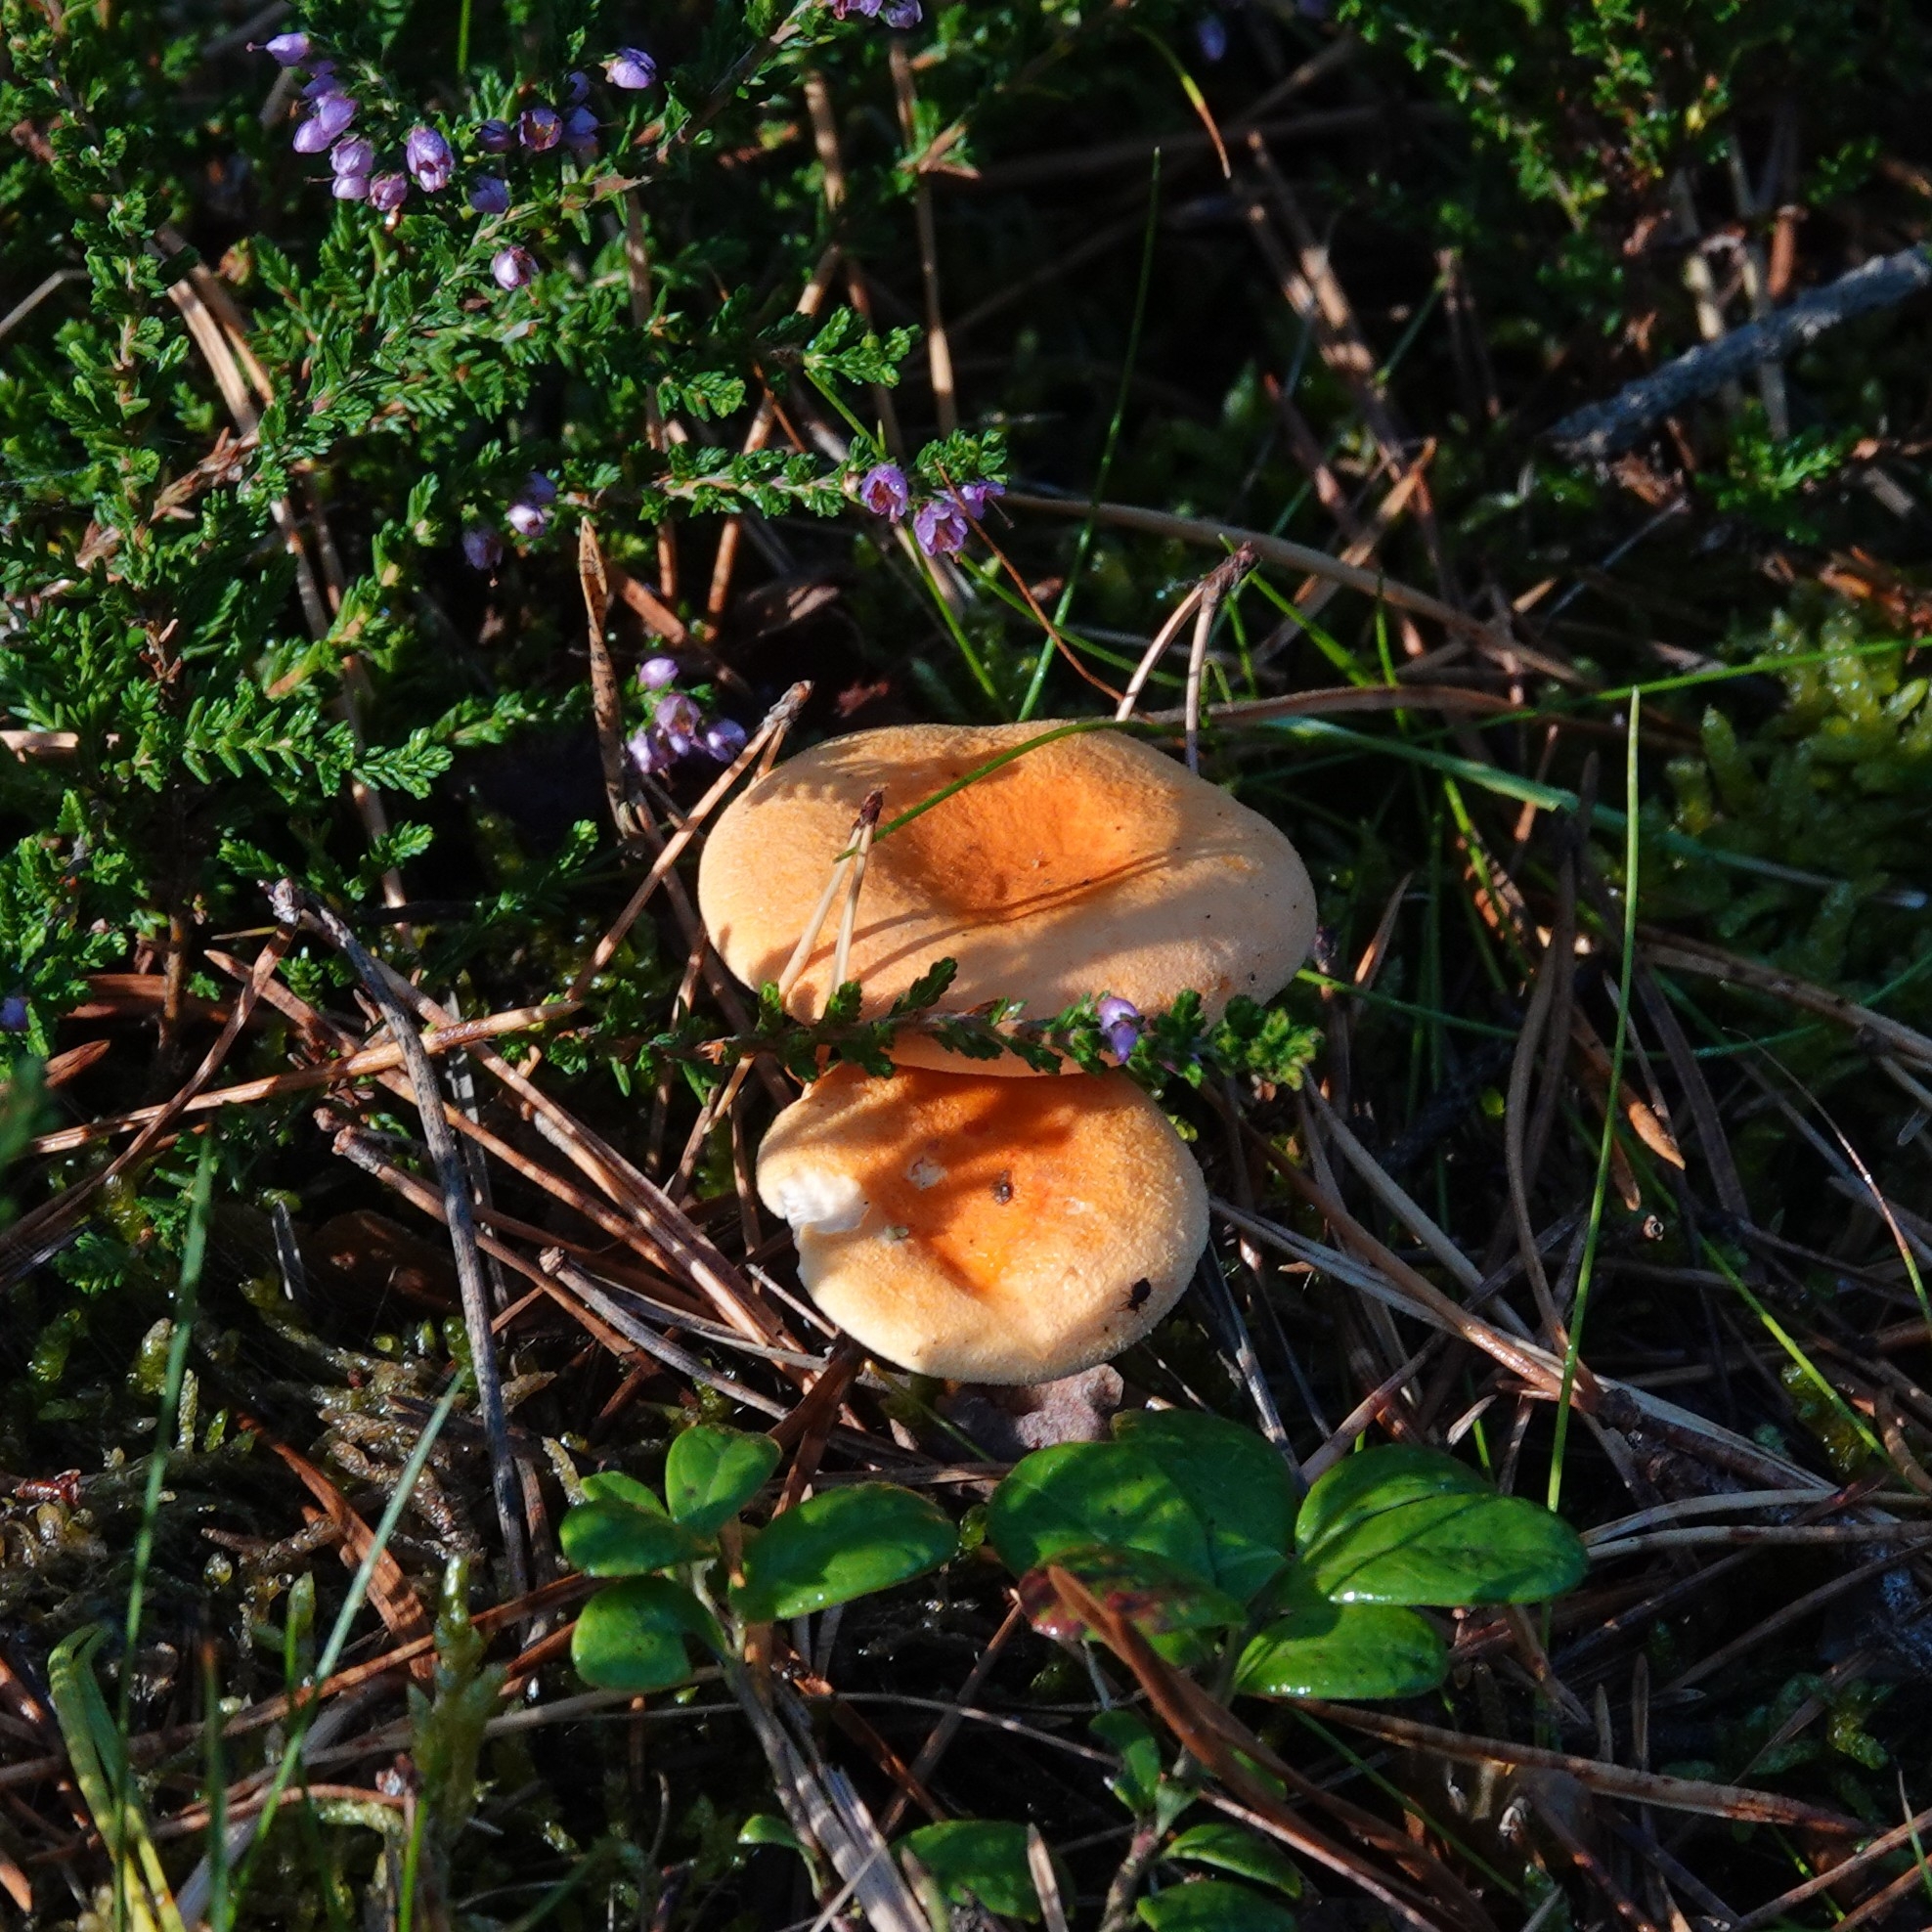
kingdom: Fungi
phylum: Basidiomycota
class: Agaricomycetes
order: Boletales
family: Hygrophoropsidaceae
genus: Hygrophoropsis
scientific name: Hygrophoropsis aurantiaca
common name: False chanterelle
